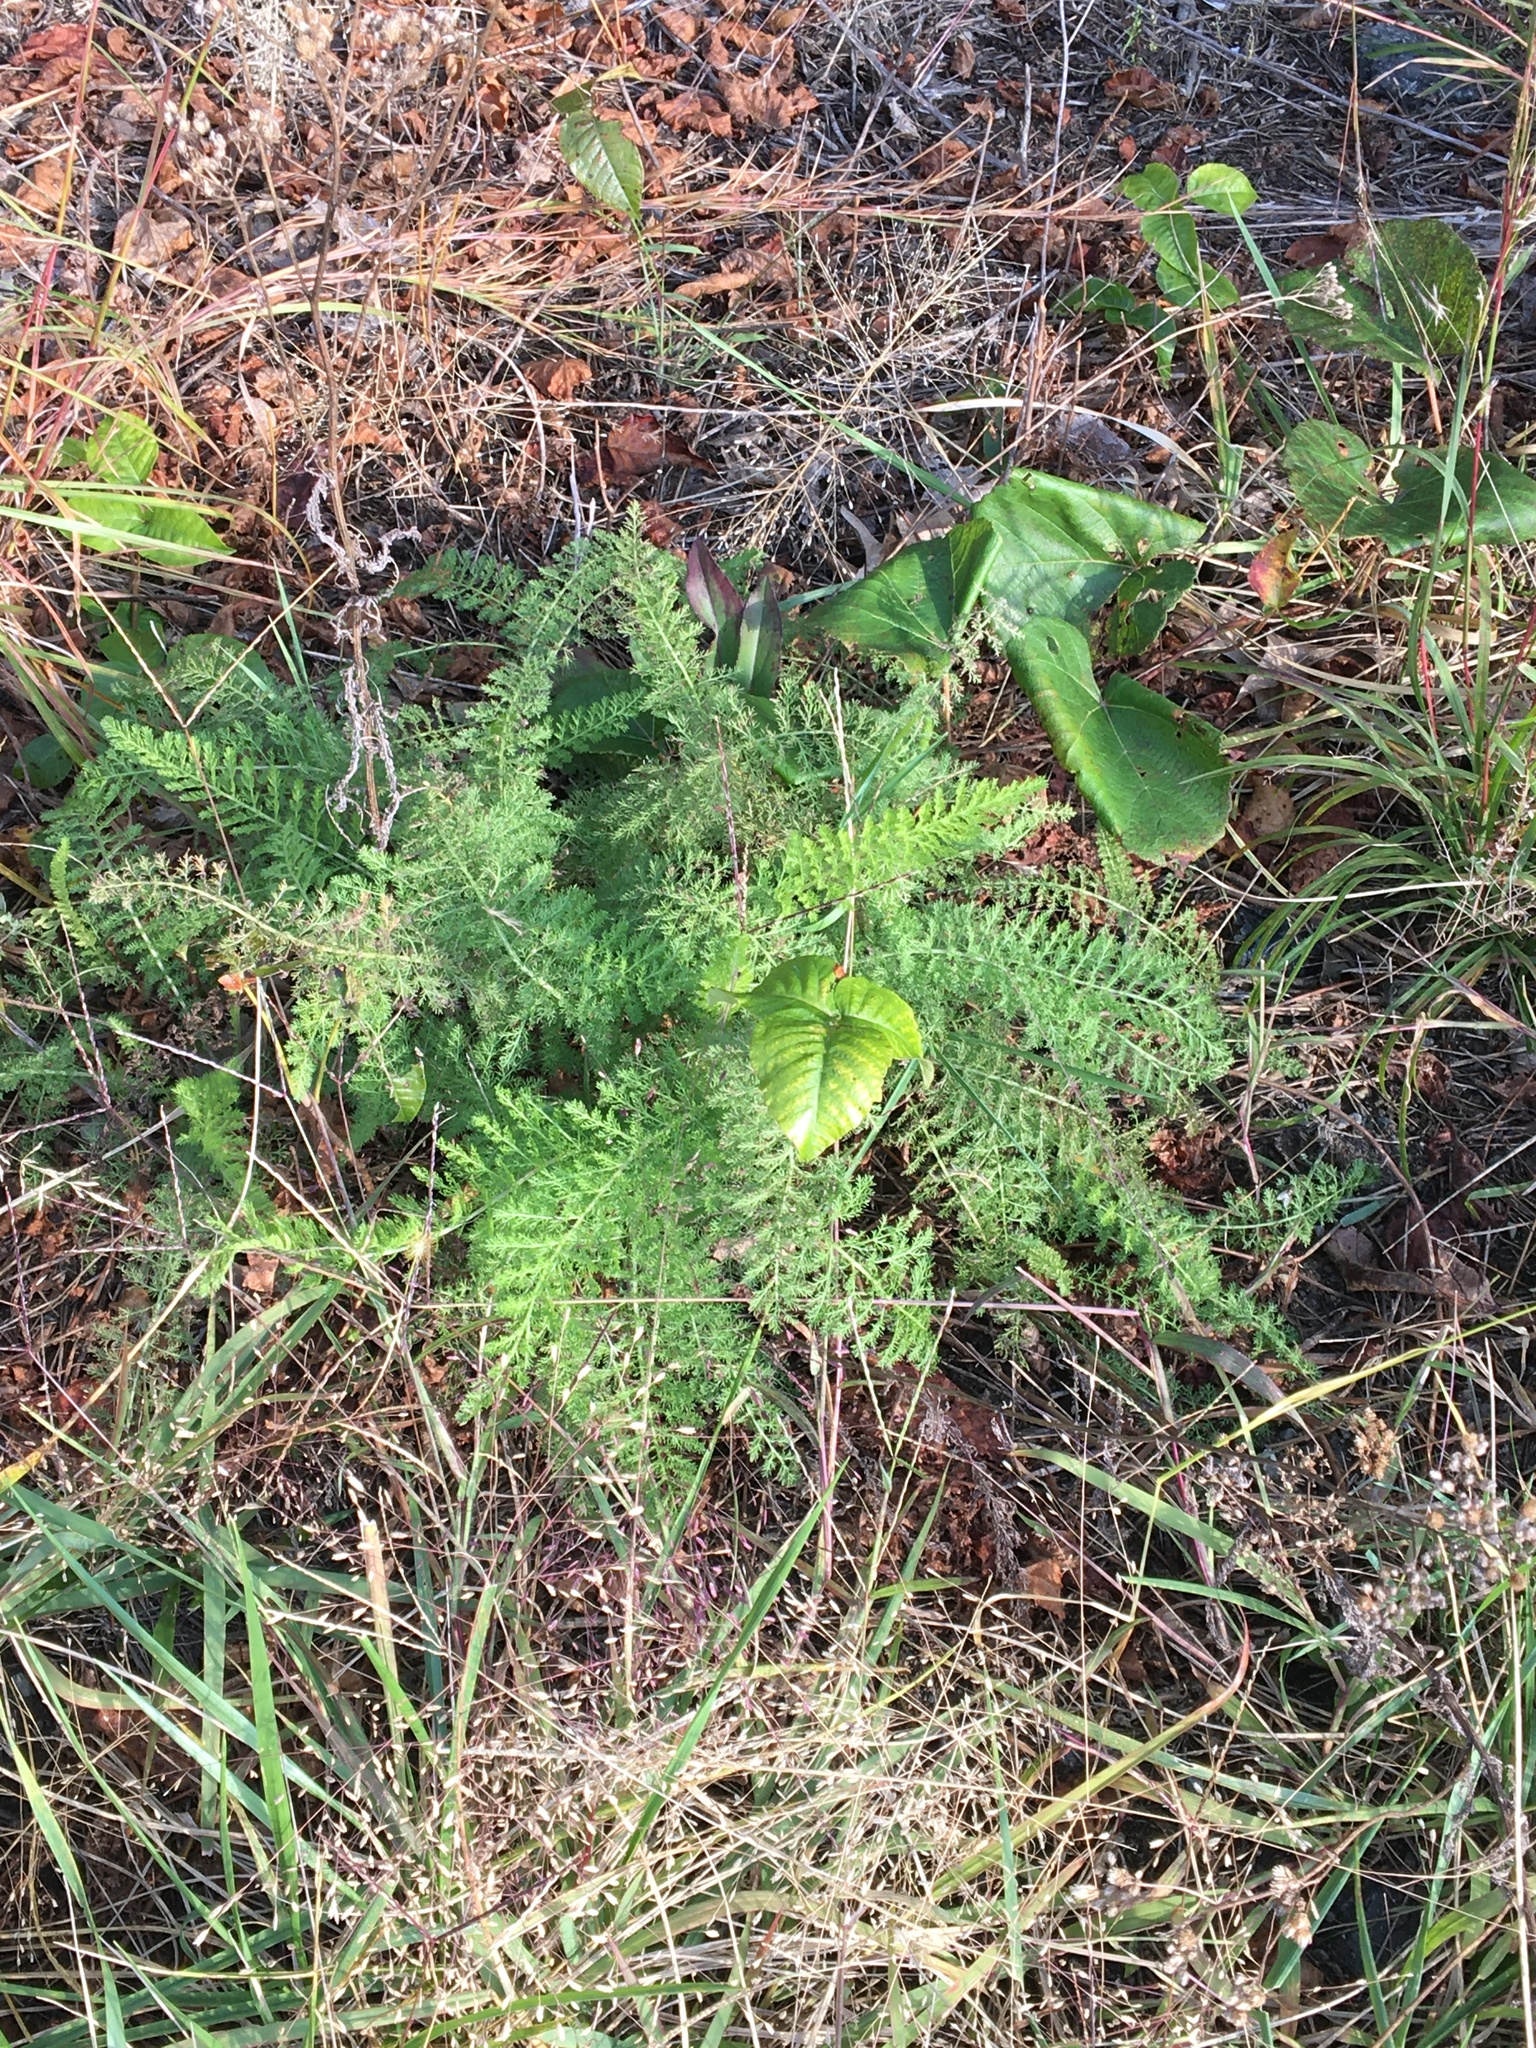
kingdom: Plantae
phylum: Tracheophyta
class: Magnoliopsida
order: Asterales
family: Asteraceae
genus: Achillea
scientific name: Achillea millefolium
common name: Yarrow
